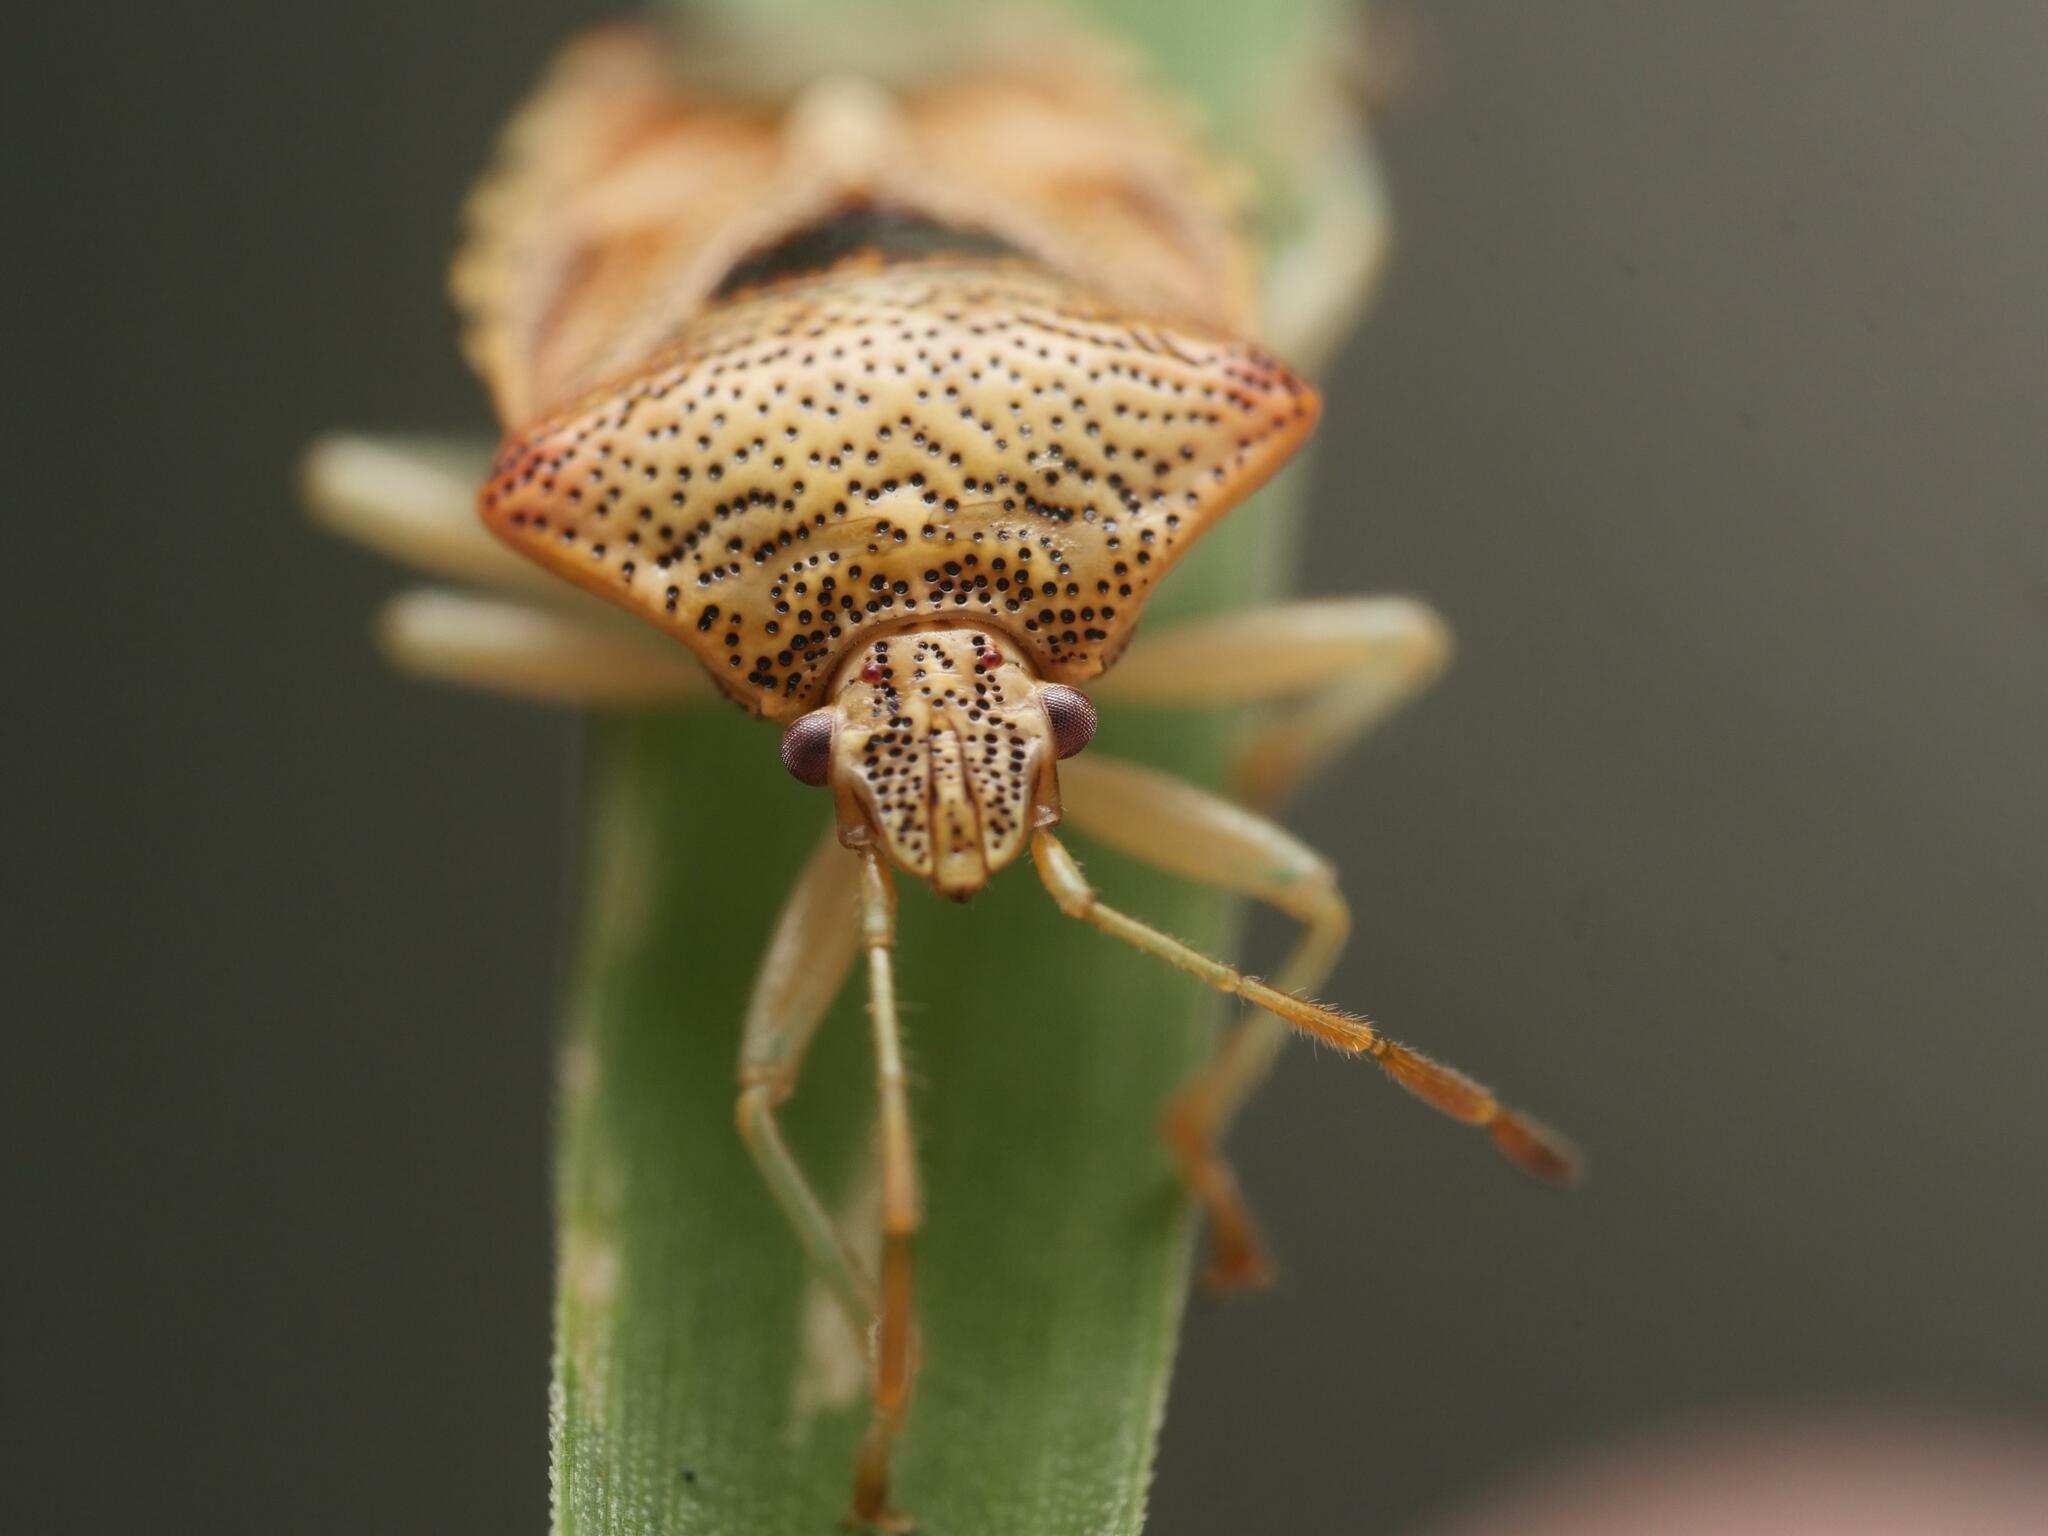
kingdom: Animalia
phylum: Arthropoda
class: Insecta
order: Hemiptera
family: Acanthosomatidae
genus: Elasmucha
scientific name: Elasmucha grisea
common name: Parent bug
